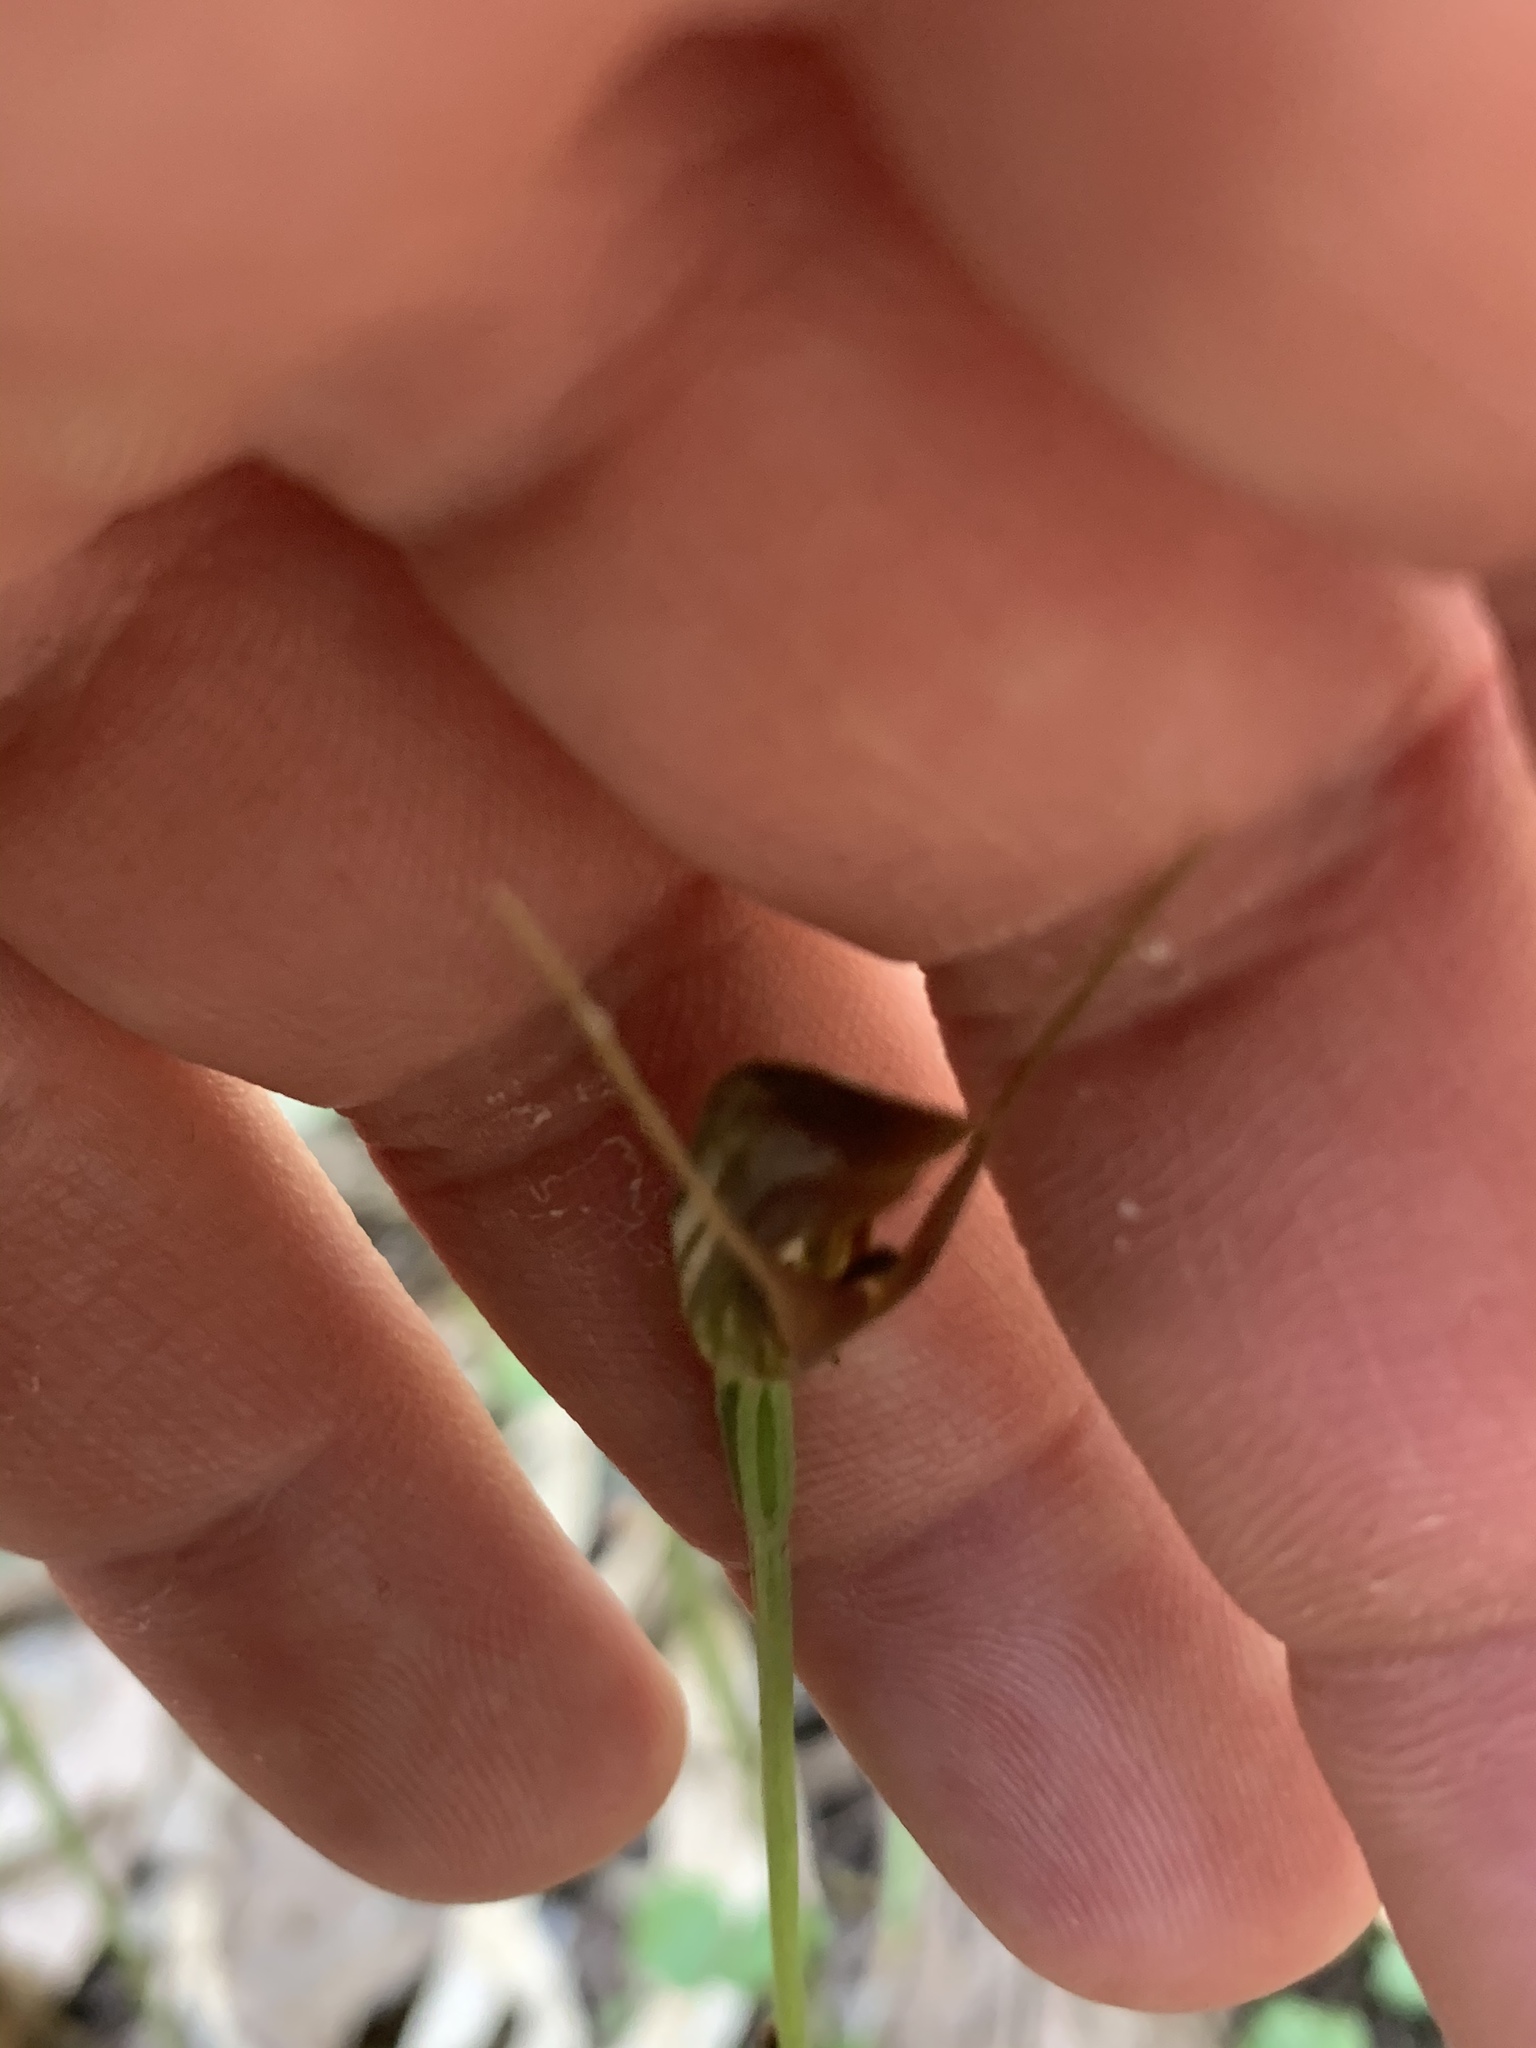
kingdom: Plantae
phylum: Tracheophyta
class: Liliopsida
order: Asparagales
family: Orchidaceae
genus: Pterostylis
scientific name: Pterostylis erecta
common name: Upright maroonhood
